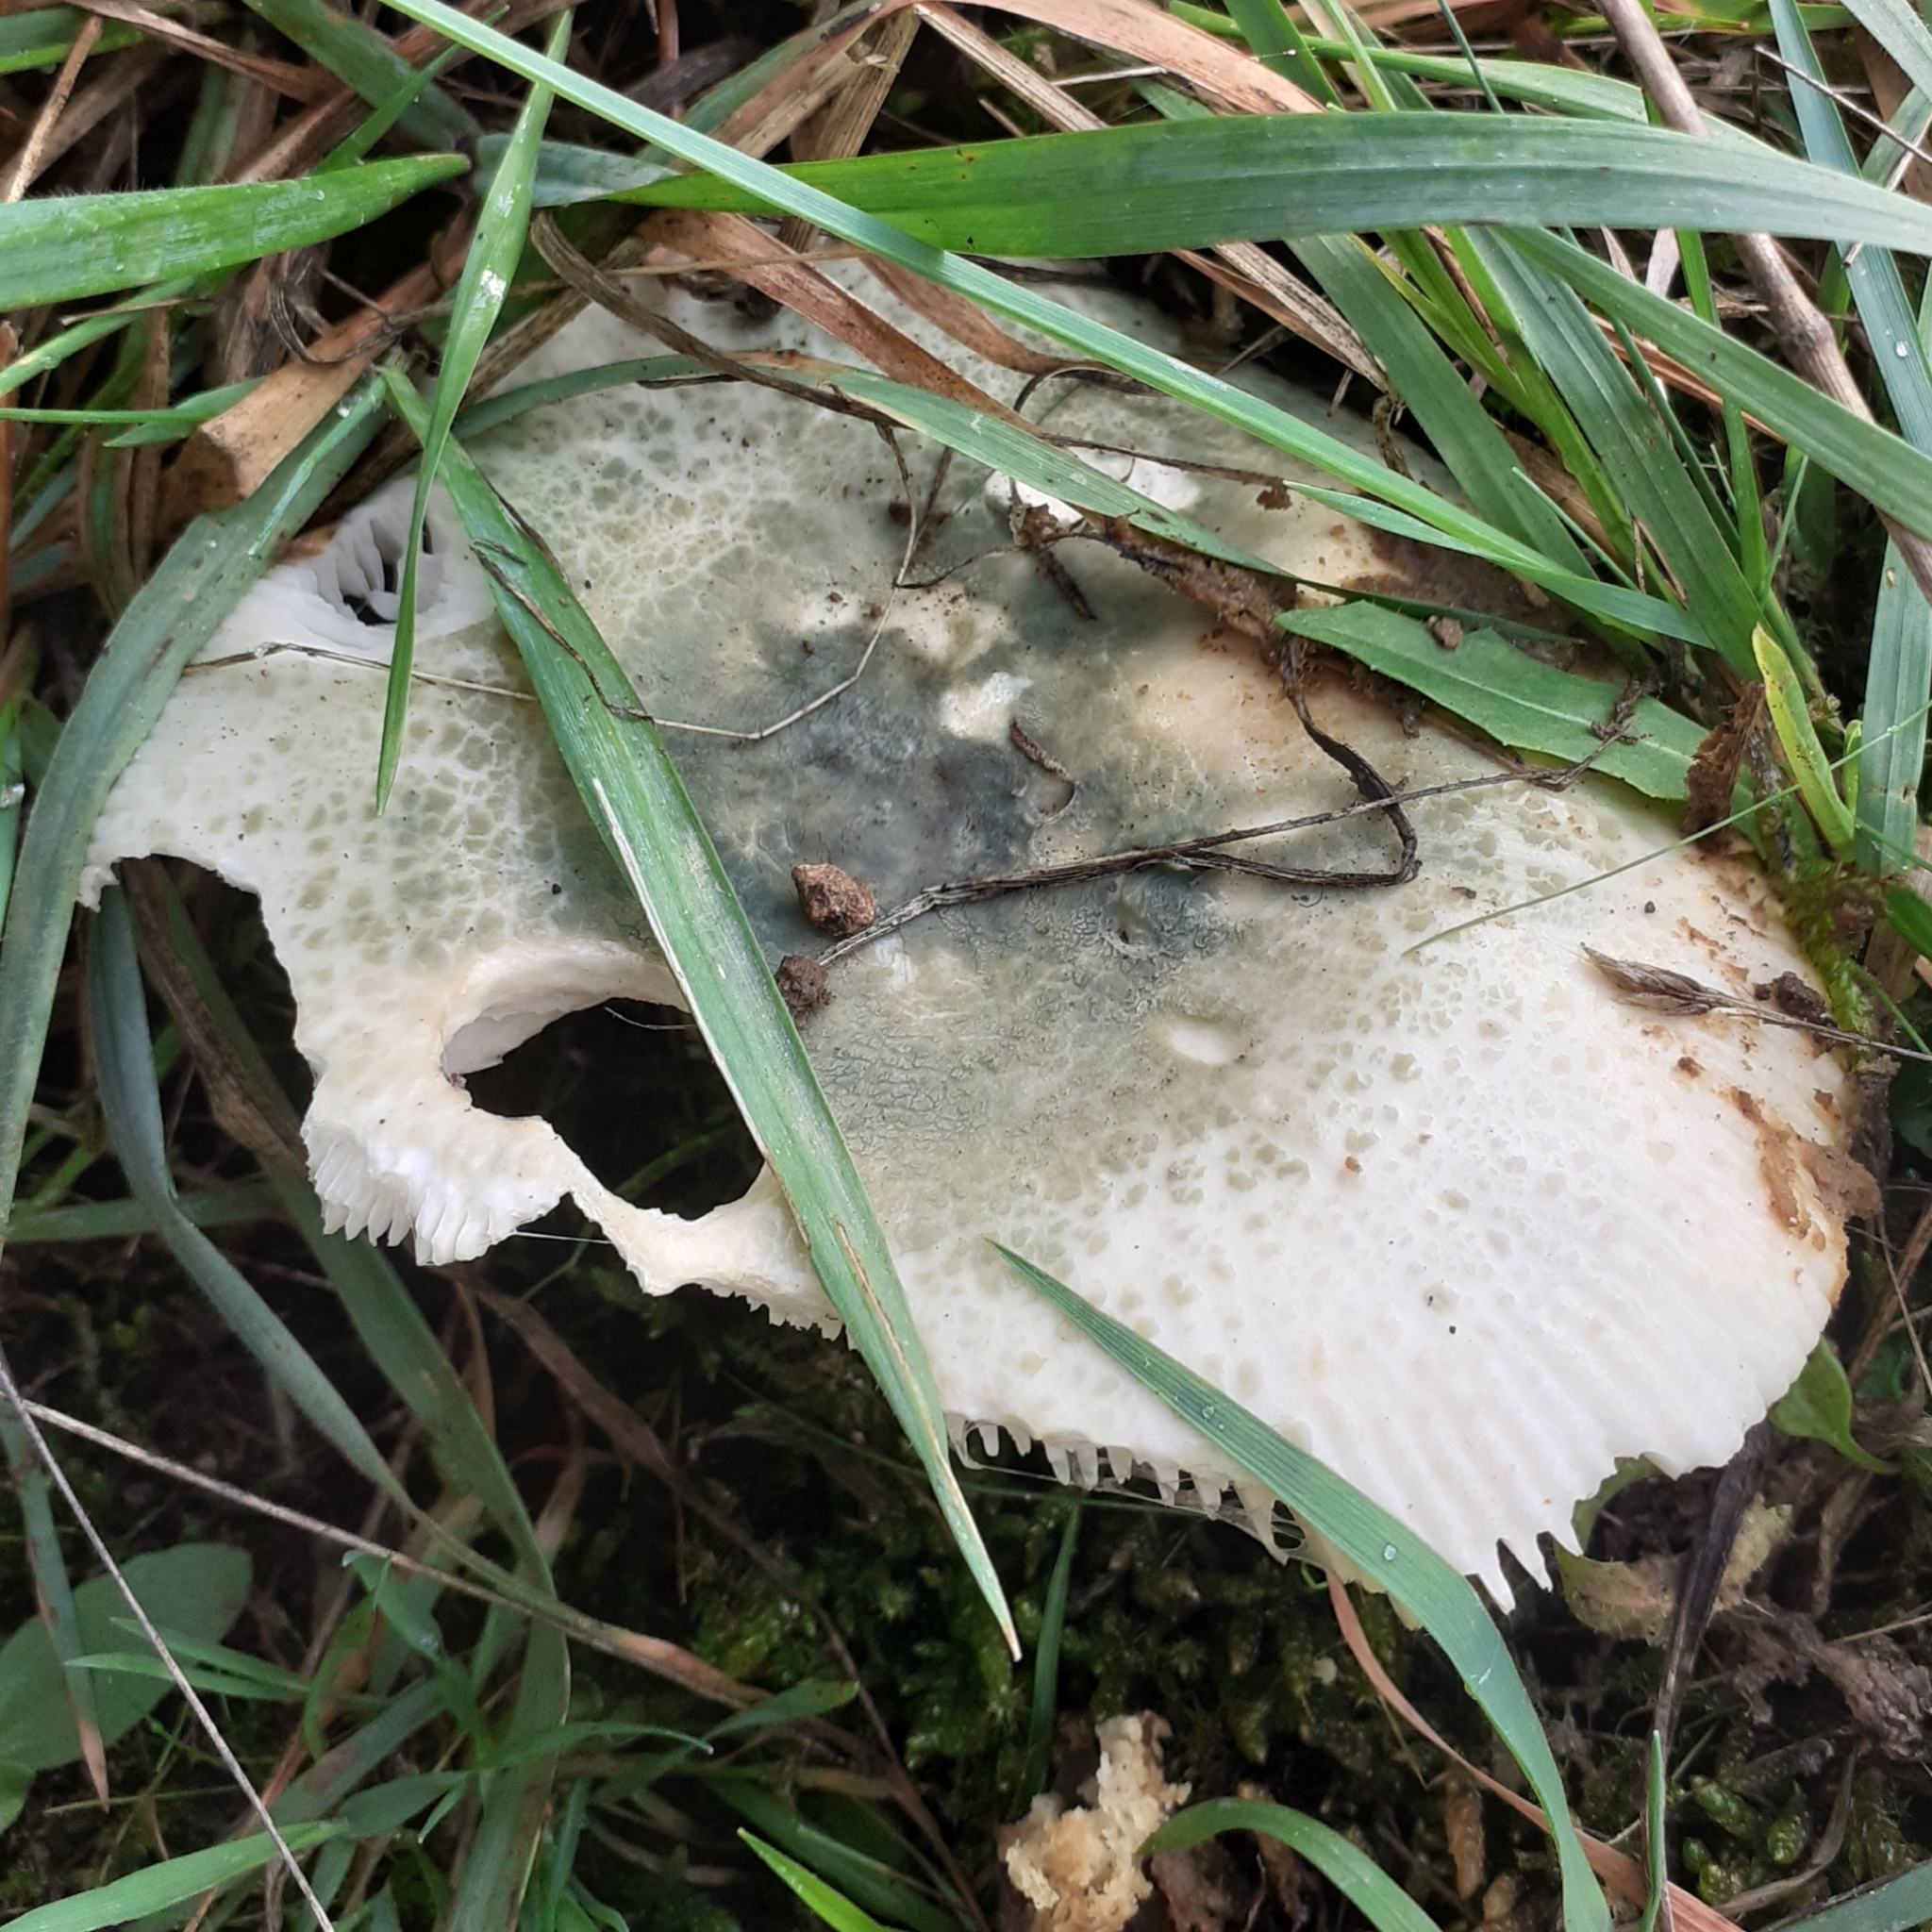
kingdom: Fungi
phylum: Basidiomycota
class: Agaricomycetes
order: Russulales
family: Russulaceae
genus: Russula
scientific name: Russula virescens
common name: Greencracked brittlegill
